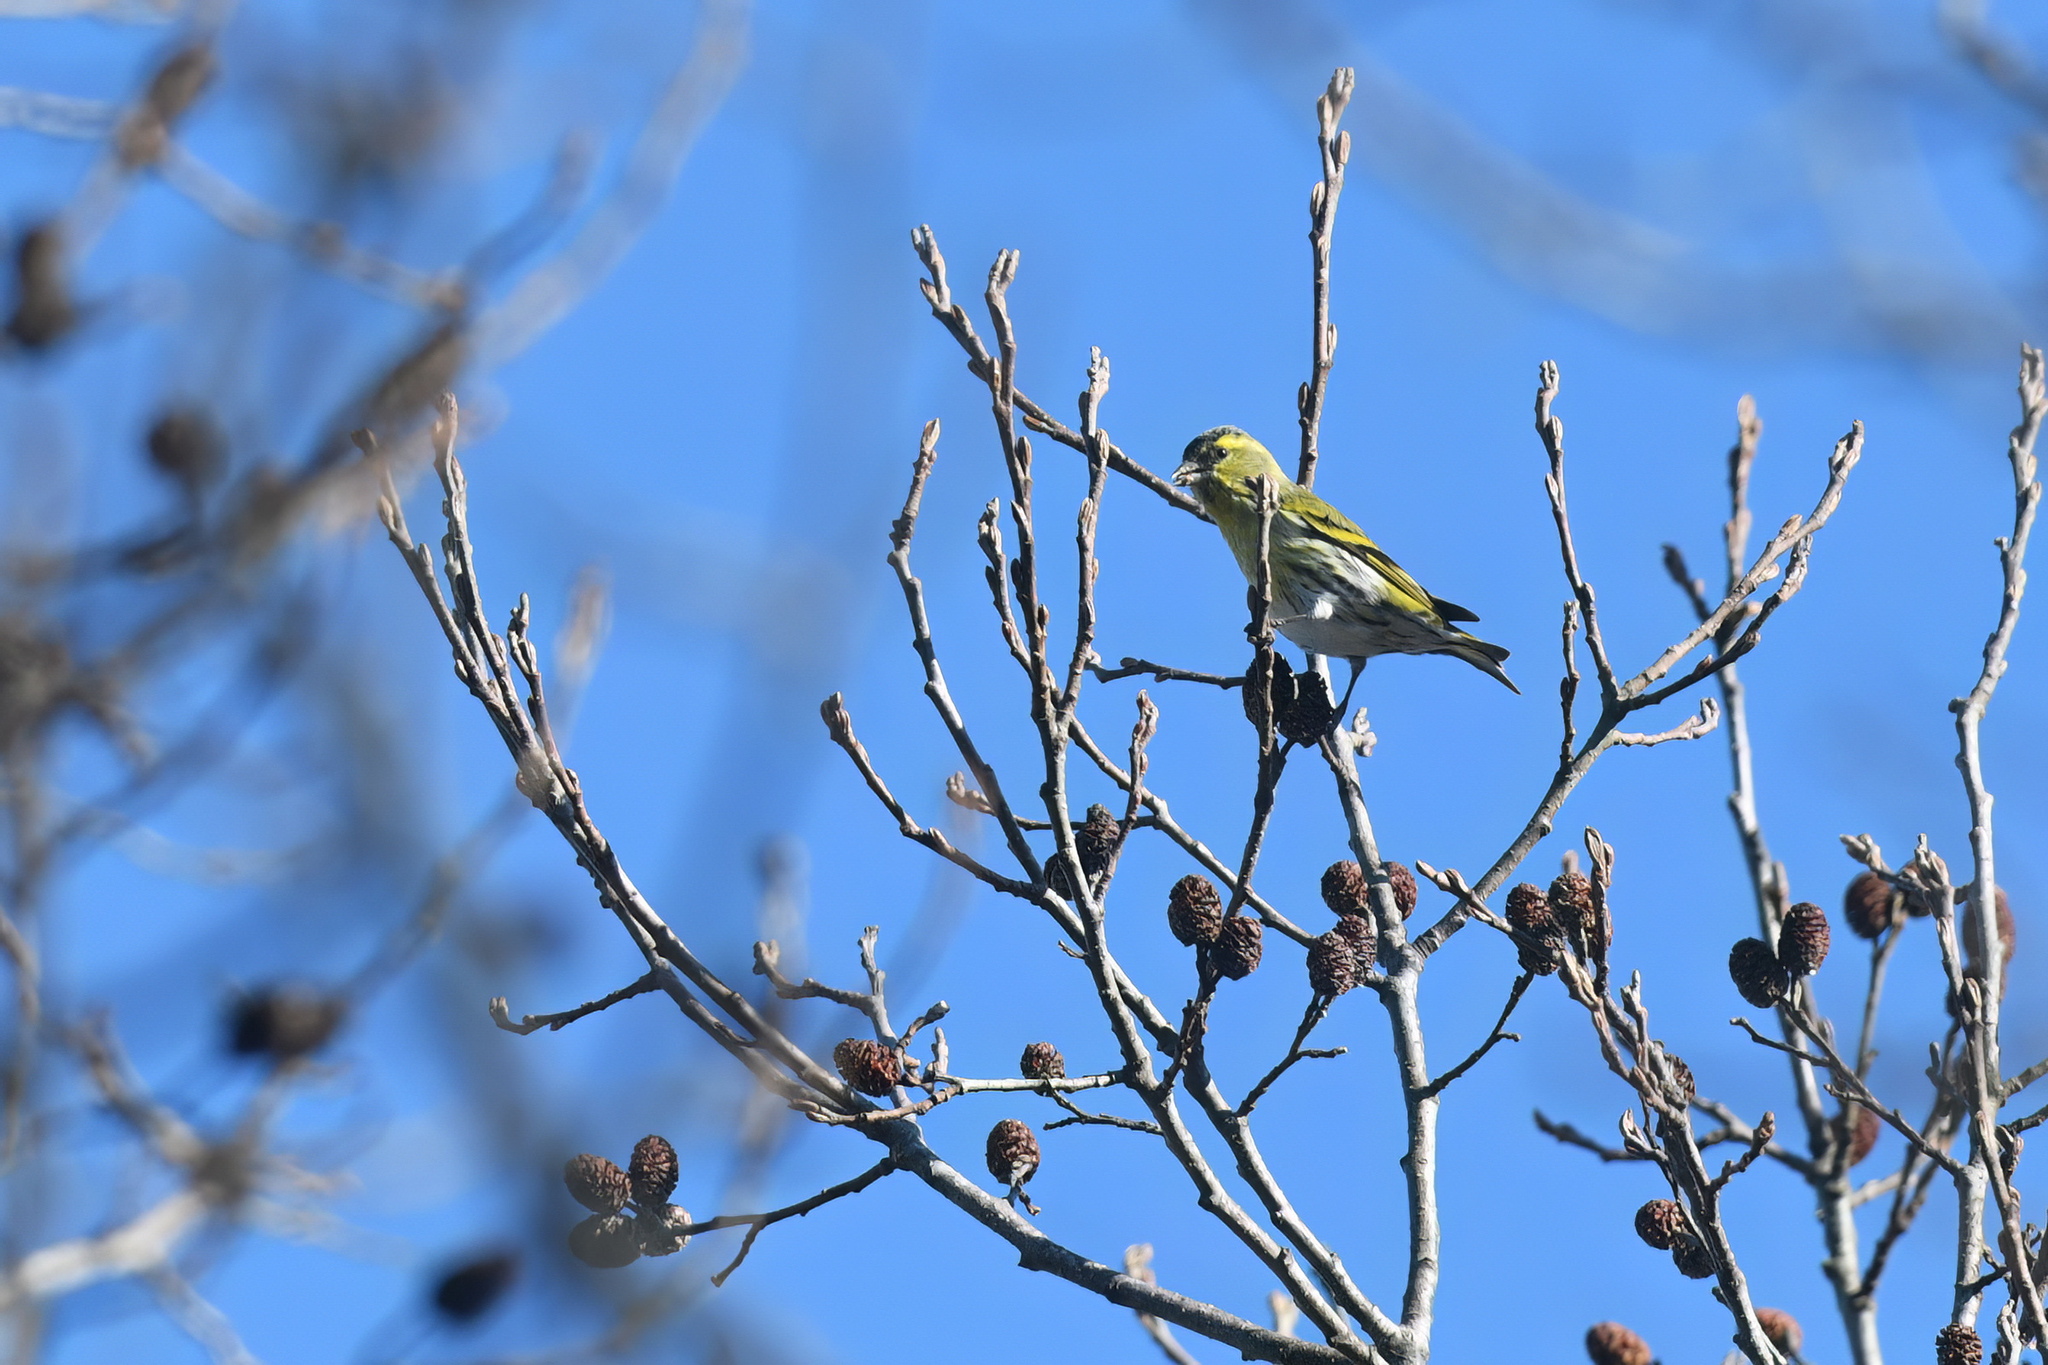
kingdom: Animalia
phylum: Chordata
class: Aves
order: Passeriformes
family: Fringillidae
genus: Spinus
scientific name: Spinus spinus
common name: Eurasian siskin
